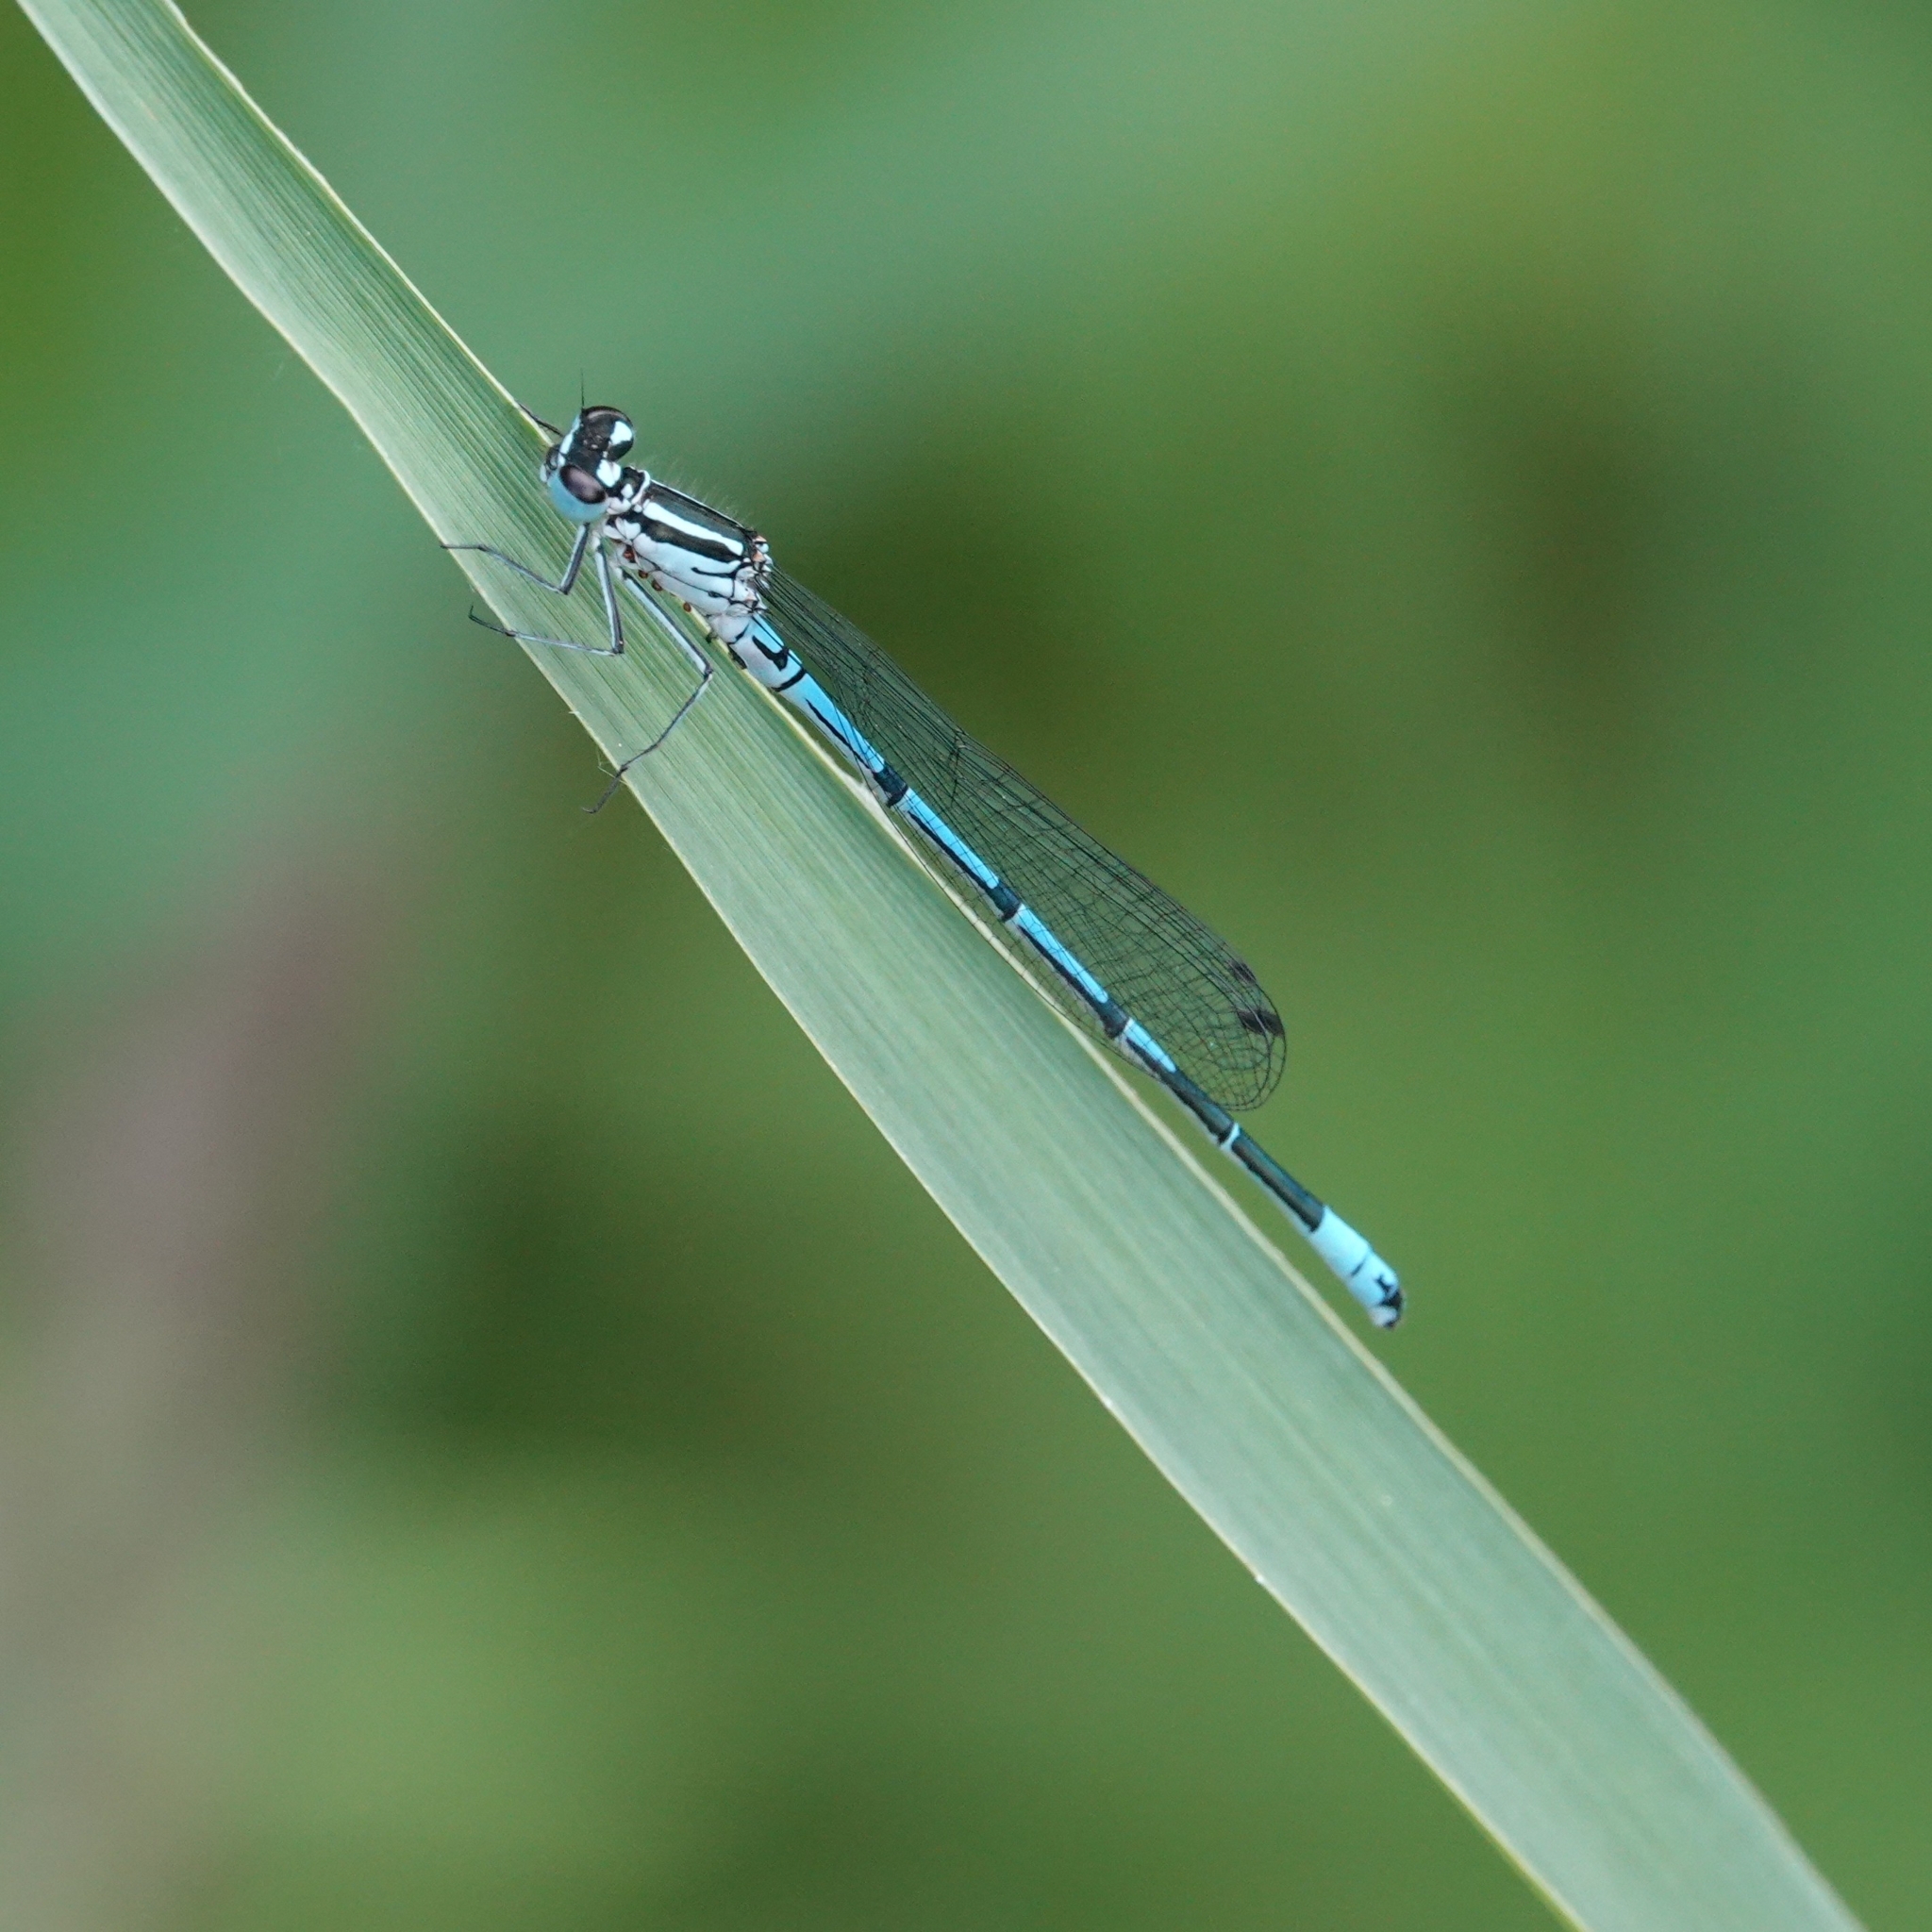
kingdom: Animalia
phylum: Arthropoda
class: Insecta
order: Odonata
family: Coenagrionidae
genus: Coenagrion
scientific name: Coenagrion puella
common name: Azure damselfly
